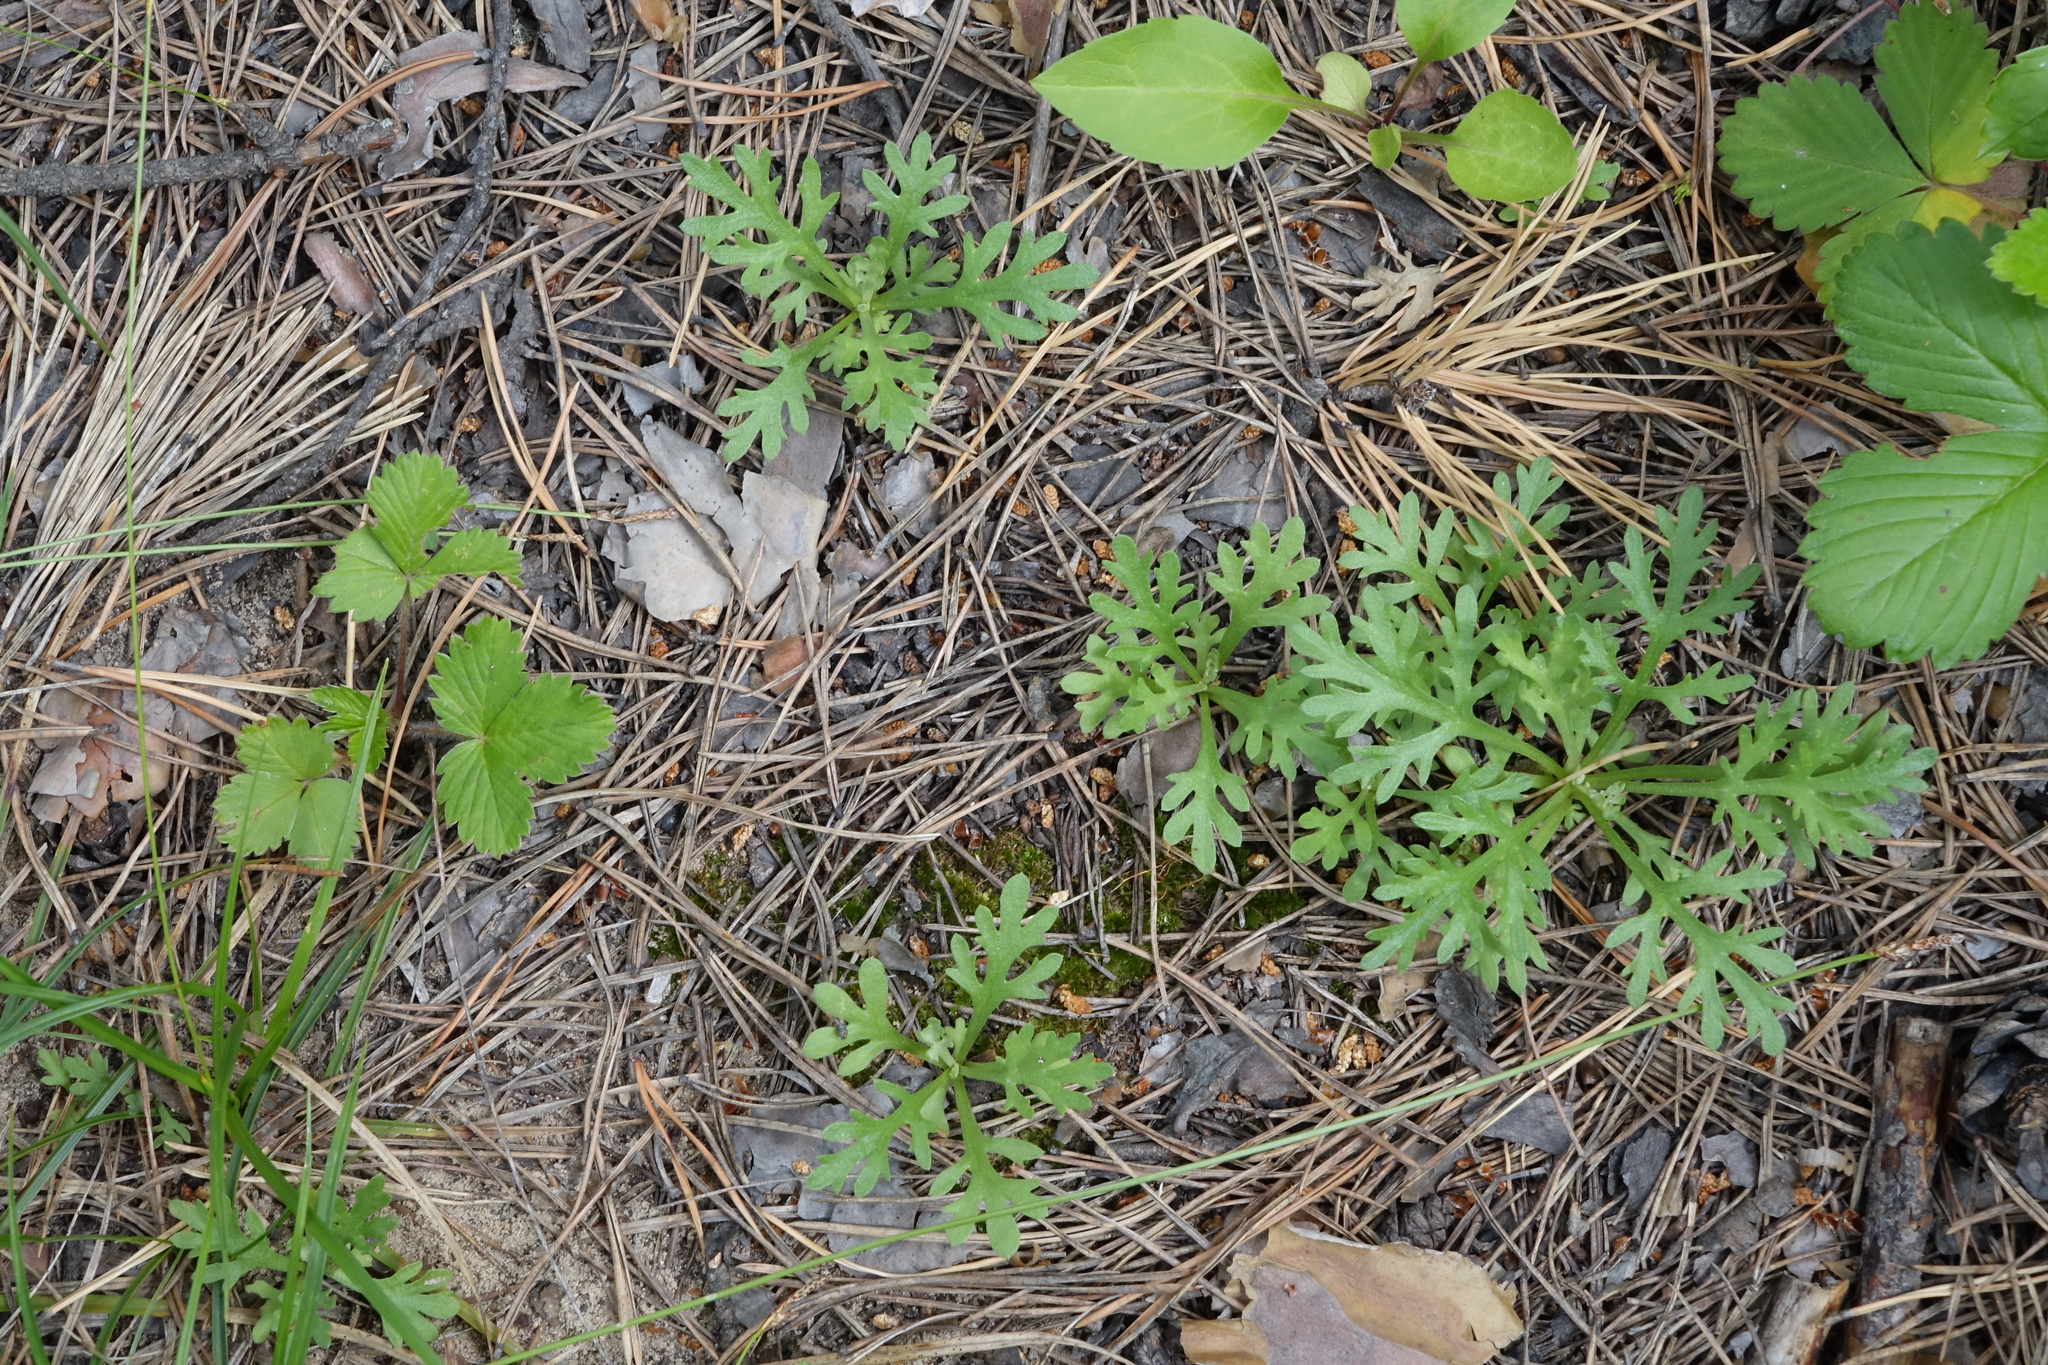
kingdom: Plantae
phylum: Tracheophyta
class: Magnoliopsida
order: Asterales
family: Asteraceae
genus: Chrysanthemum
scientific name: Chrysanthemum zawadzkii
